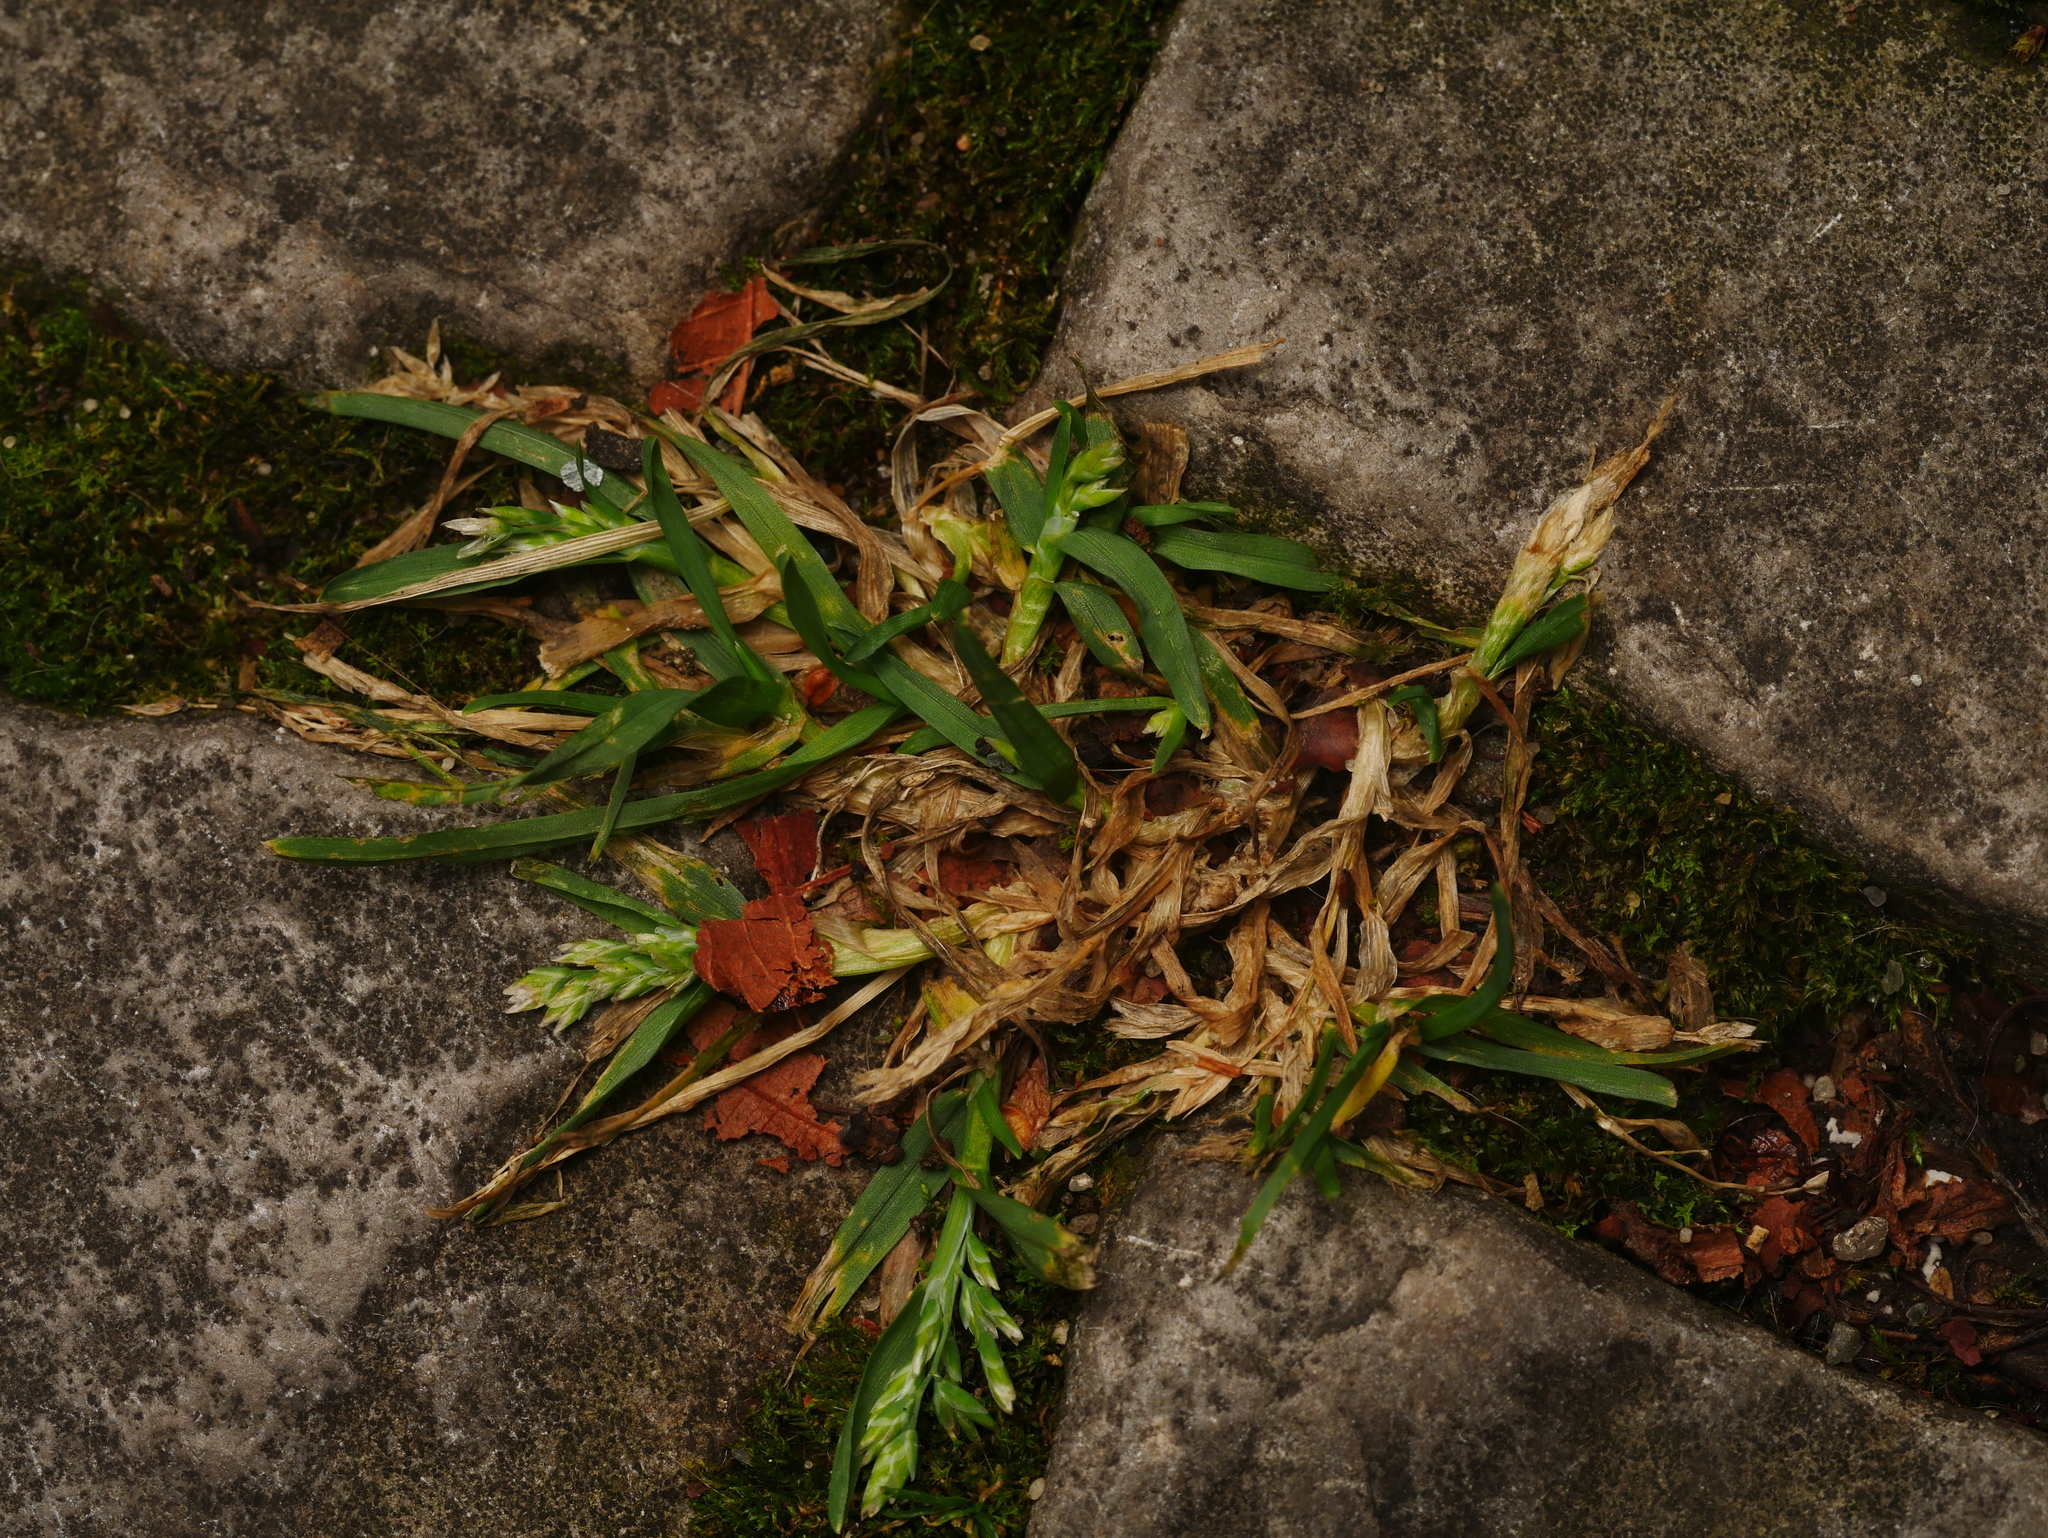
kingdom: Plantae
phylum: Tracheophyta
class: Liliopsida
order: Poales
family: Poaceae
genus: Poa
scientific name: Poa annua
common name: Annual bluegrass
